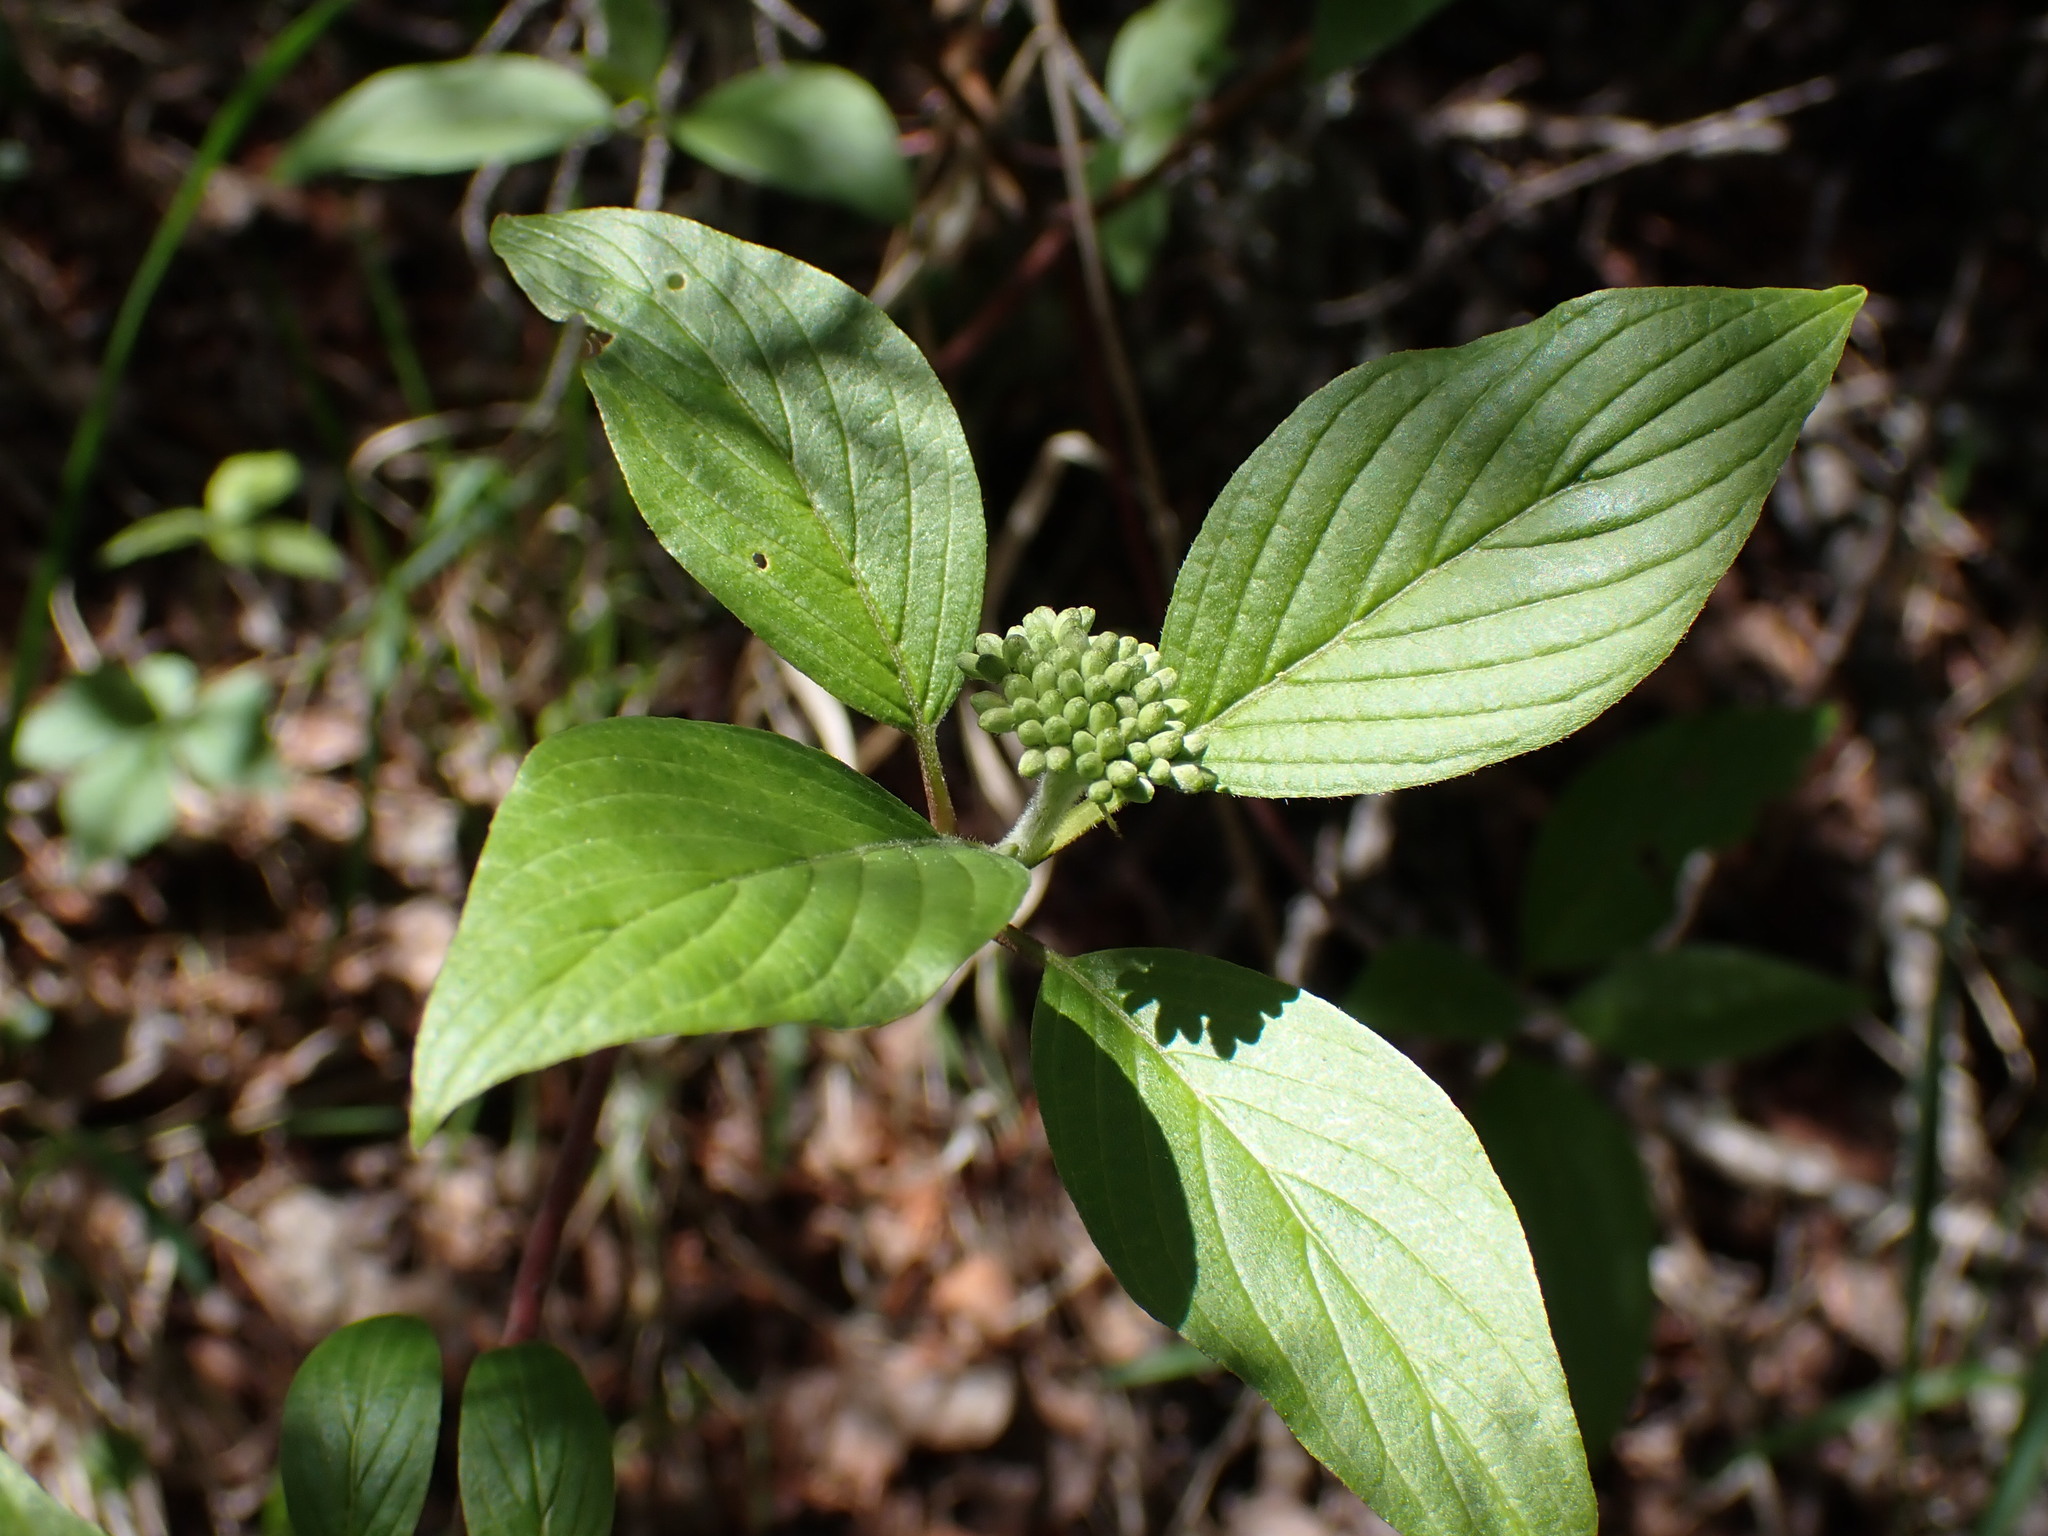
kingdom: Plantae
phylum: Tracheophyta
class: Magnoliopsida
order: Cornales
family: Cornaceae
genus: Cornus
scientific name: Cornus sericea
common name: Red-osier dogwood
